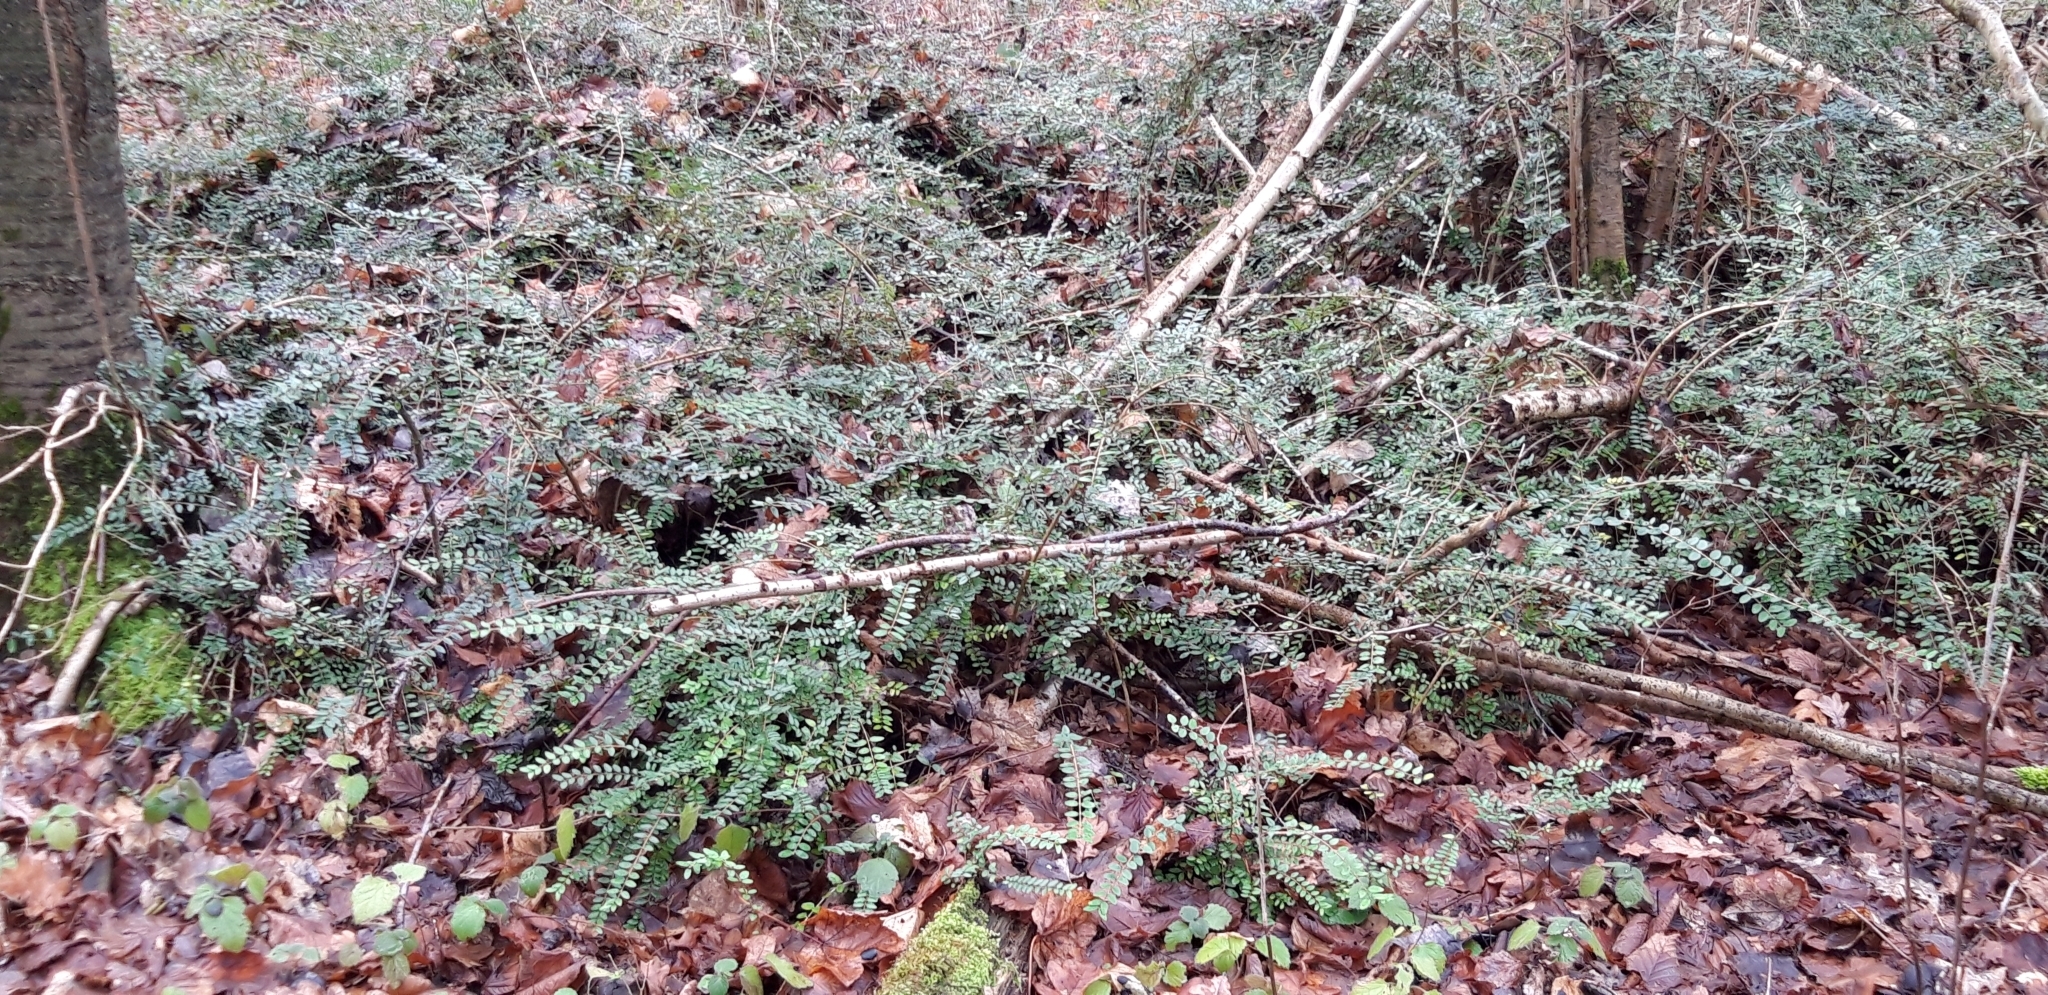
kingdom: Plantae
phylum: Tracheophyta
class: Magnoliopsida
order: Dipsacales
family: Caprifoliaceae
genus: Lonicera
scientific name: Lonicera pileata
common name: Box-leaved honeysuckle
